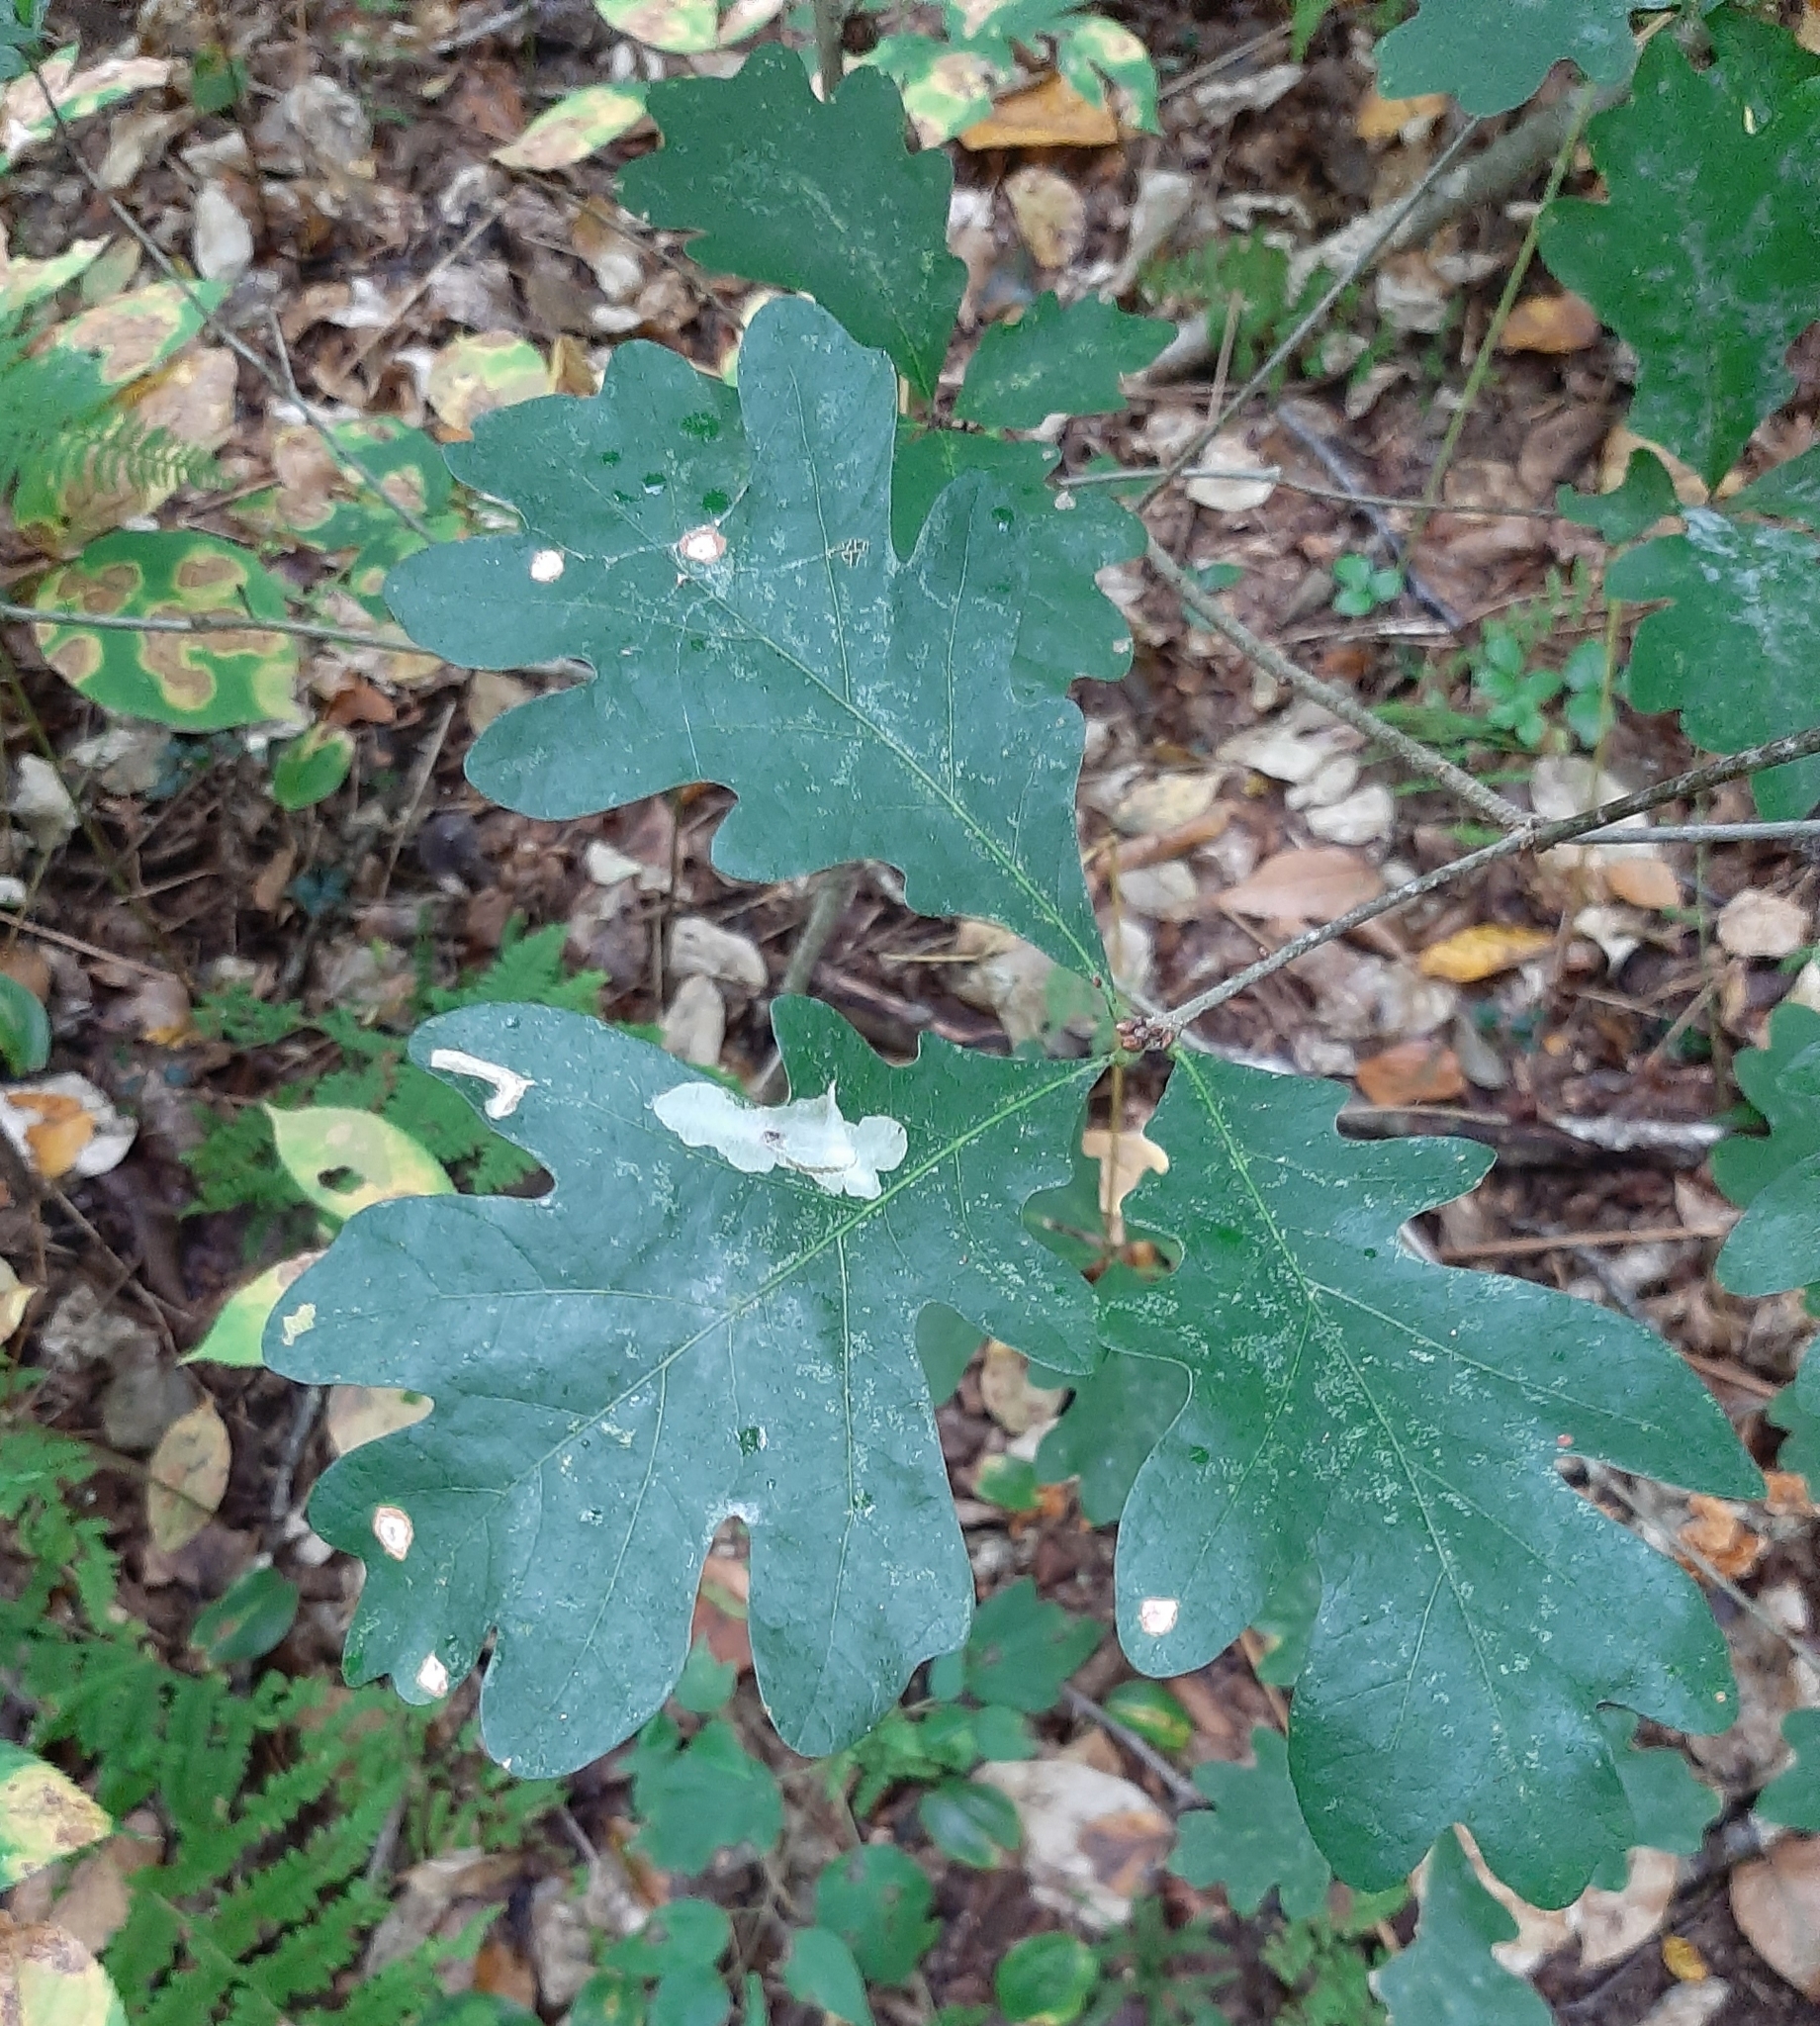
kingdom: Animalia
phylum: Arthropoda
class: Insecta
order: Lepidoptera
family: Tischeriidae
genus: Coptotriche
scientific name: Coptotriche badiiella
